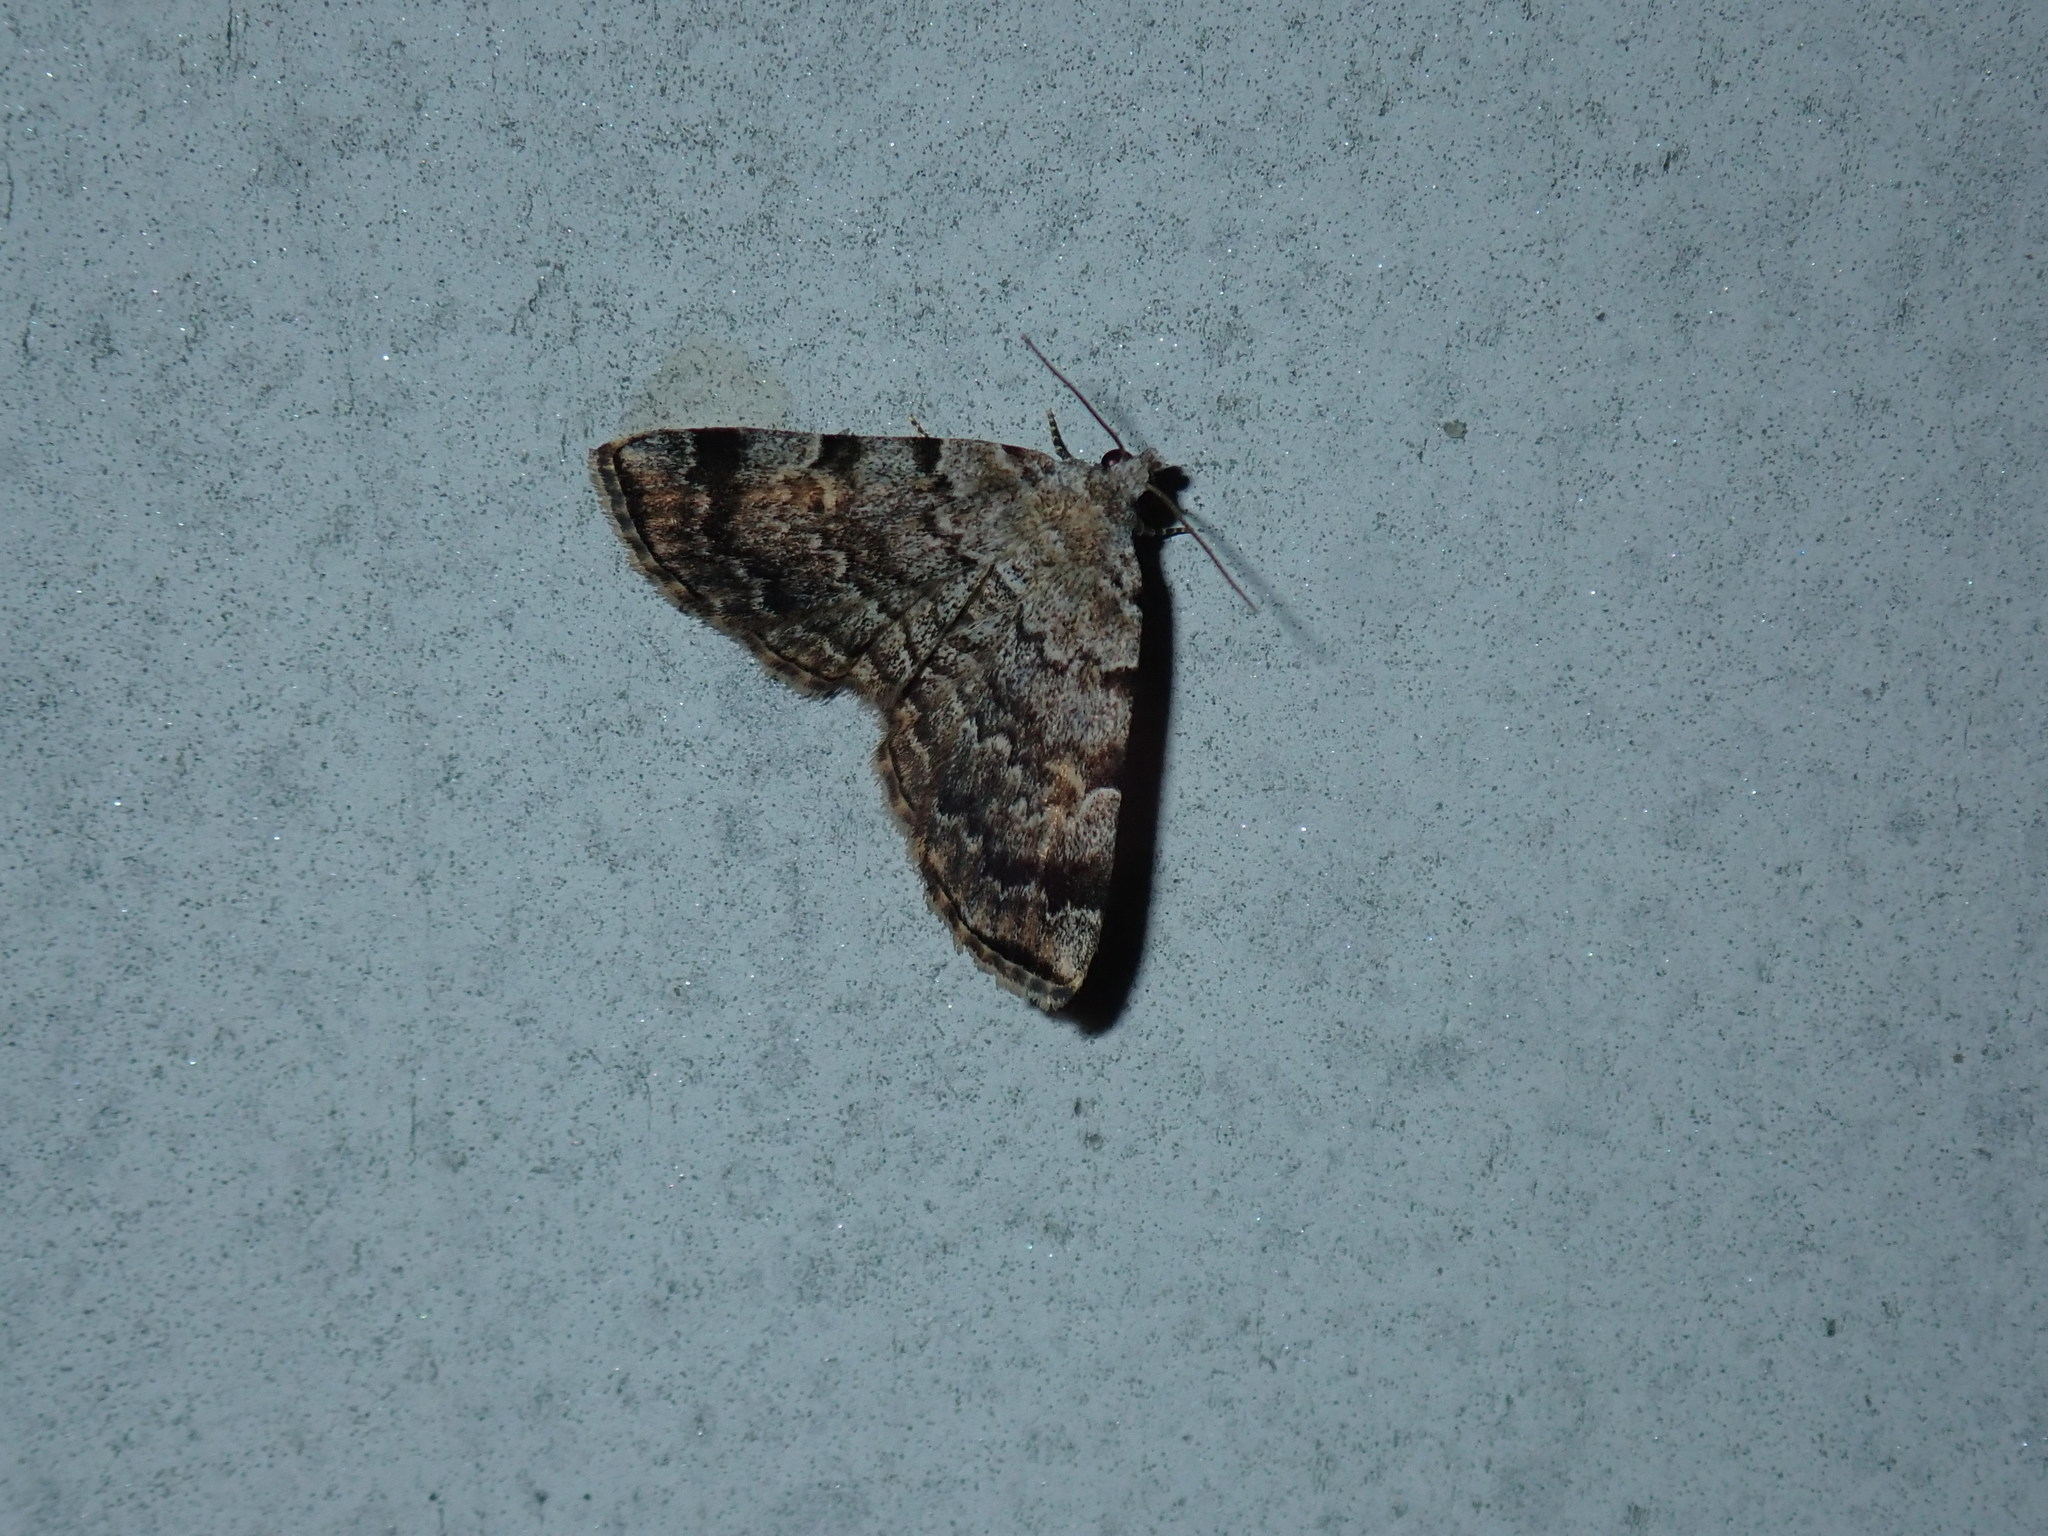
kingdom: Animalia
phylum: Arthropoda
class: Insecta
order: Lepidoptera
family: Erebidae
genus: Idia
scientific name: Idia americalis
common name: American idia moth
